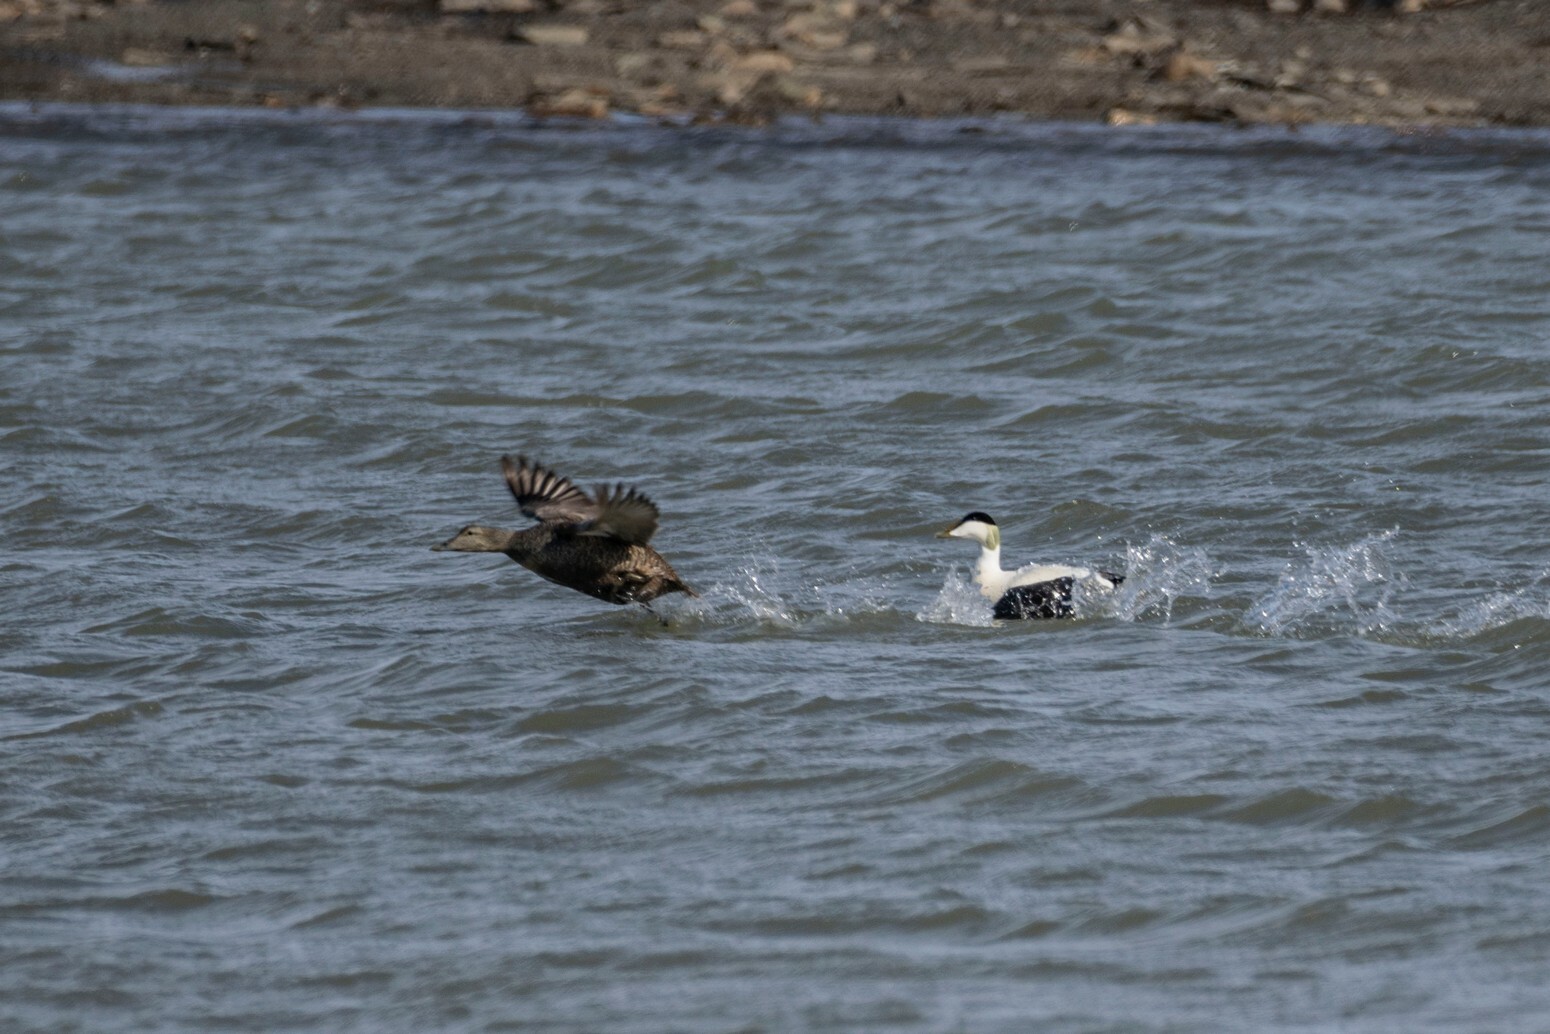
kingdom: Animalia
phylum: Chordata
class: Aves
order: Anseriformes
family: Anatidae
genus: Somateria
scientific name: Somateria mollissima
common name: Common eider
